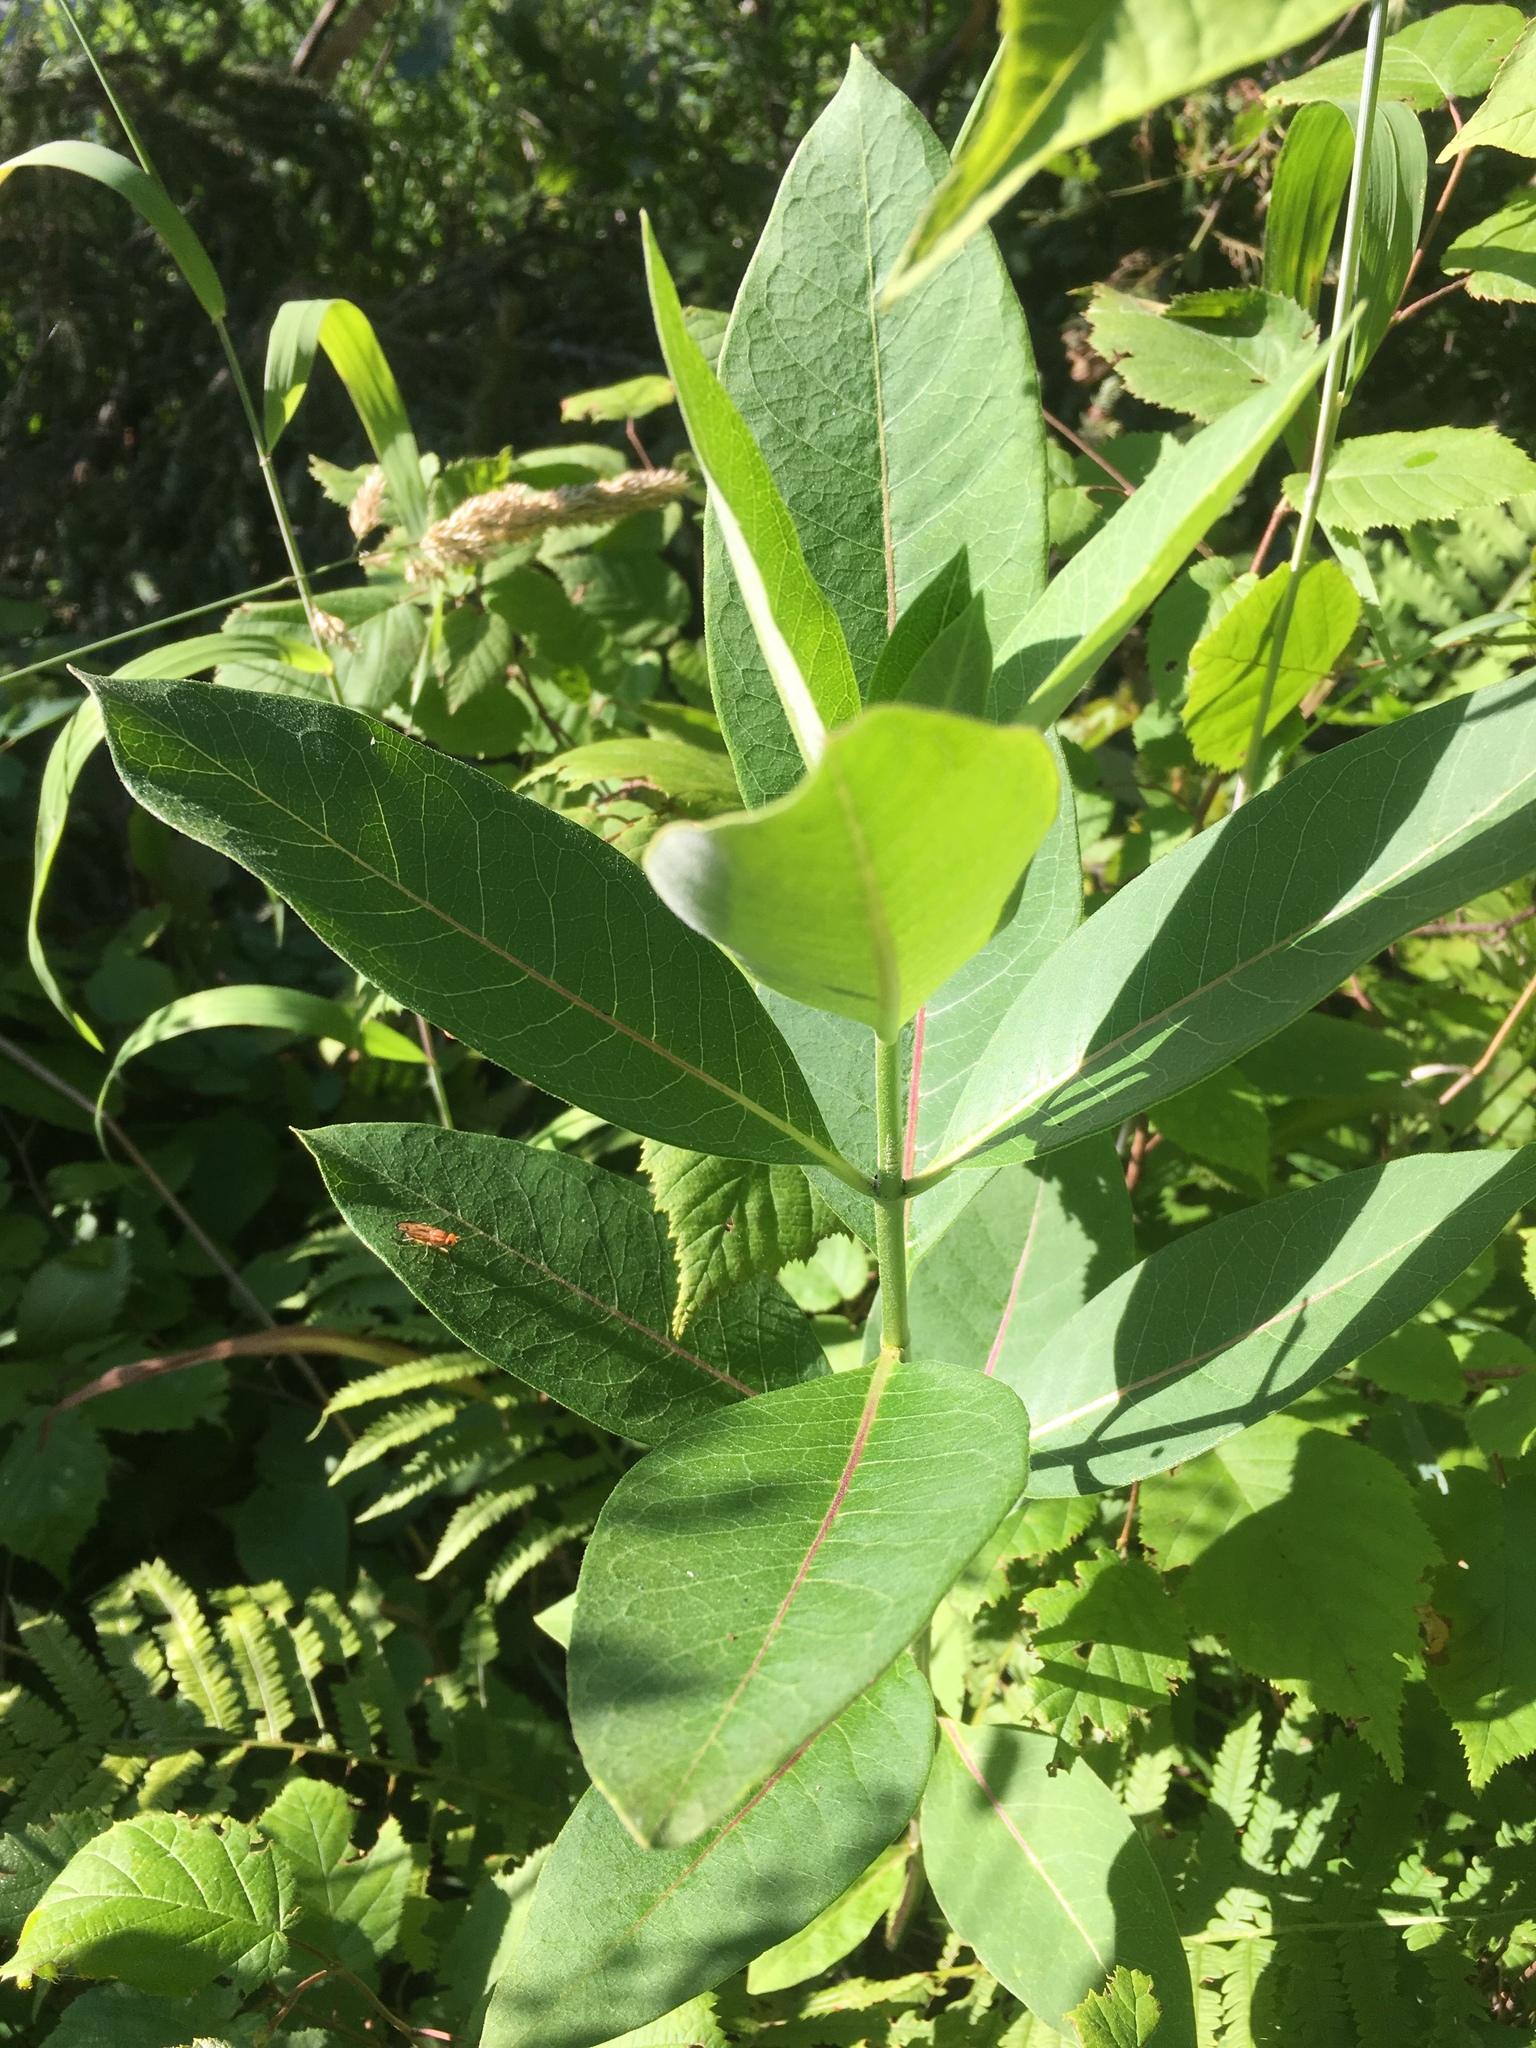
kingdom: Plantae
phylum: Tracheophyta
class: Magnoliopsida
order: Gentianales
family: Apocynaceae
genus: Asclepias
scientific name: Asclepias syriaca
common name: Common milkweed
